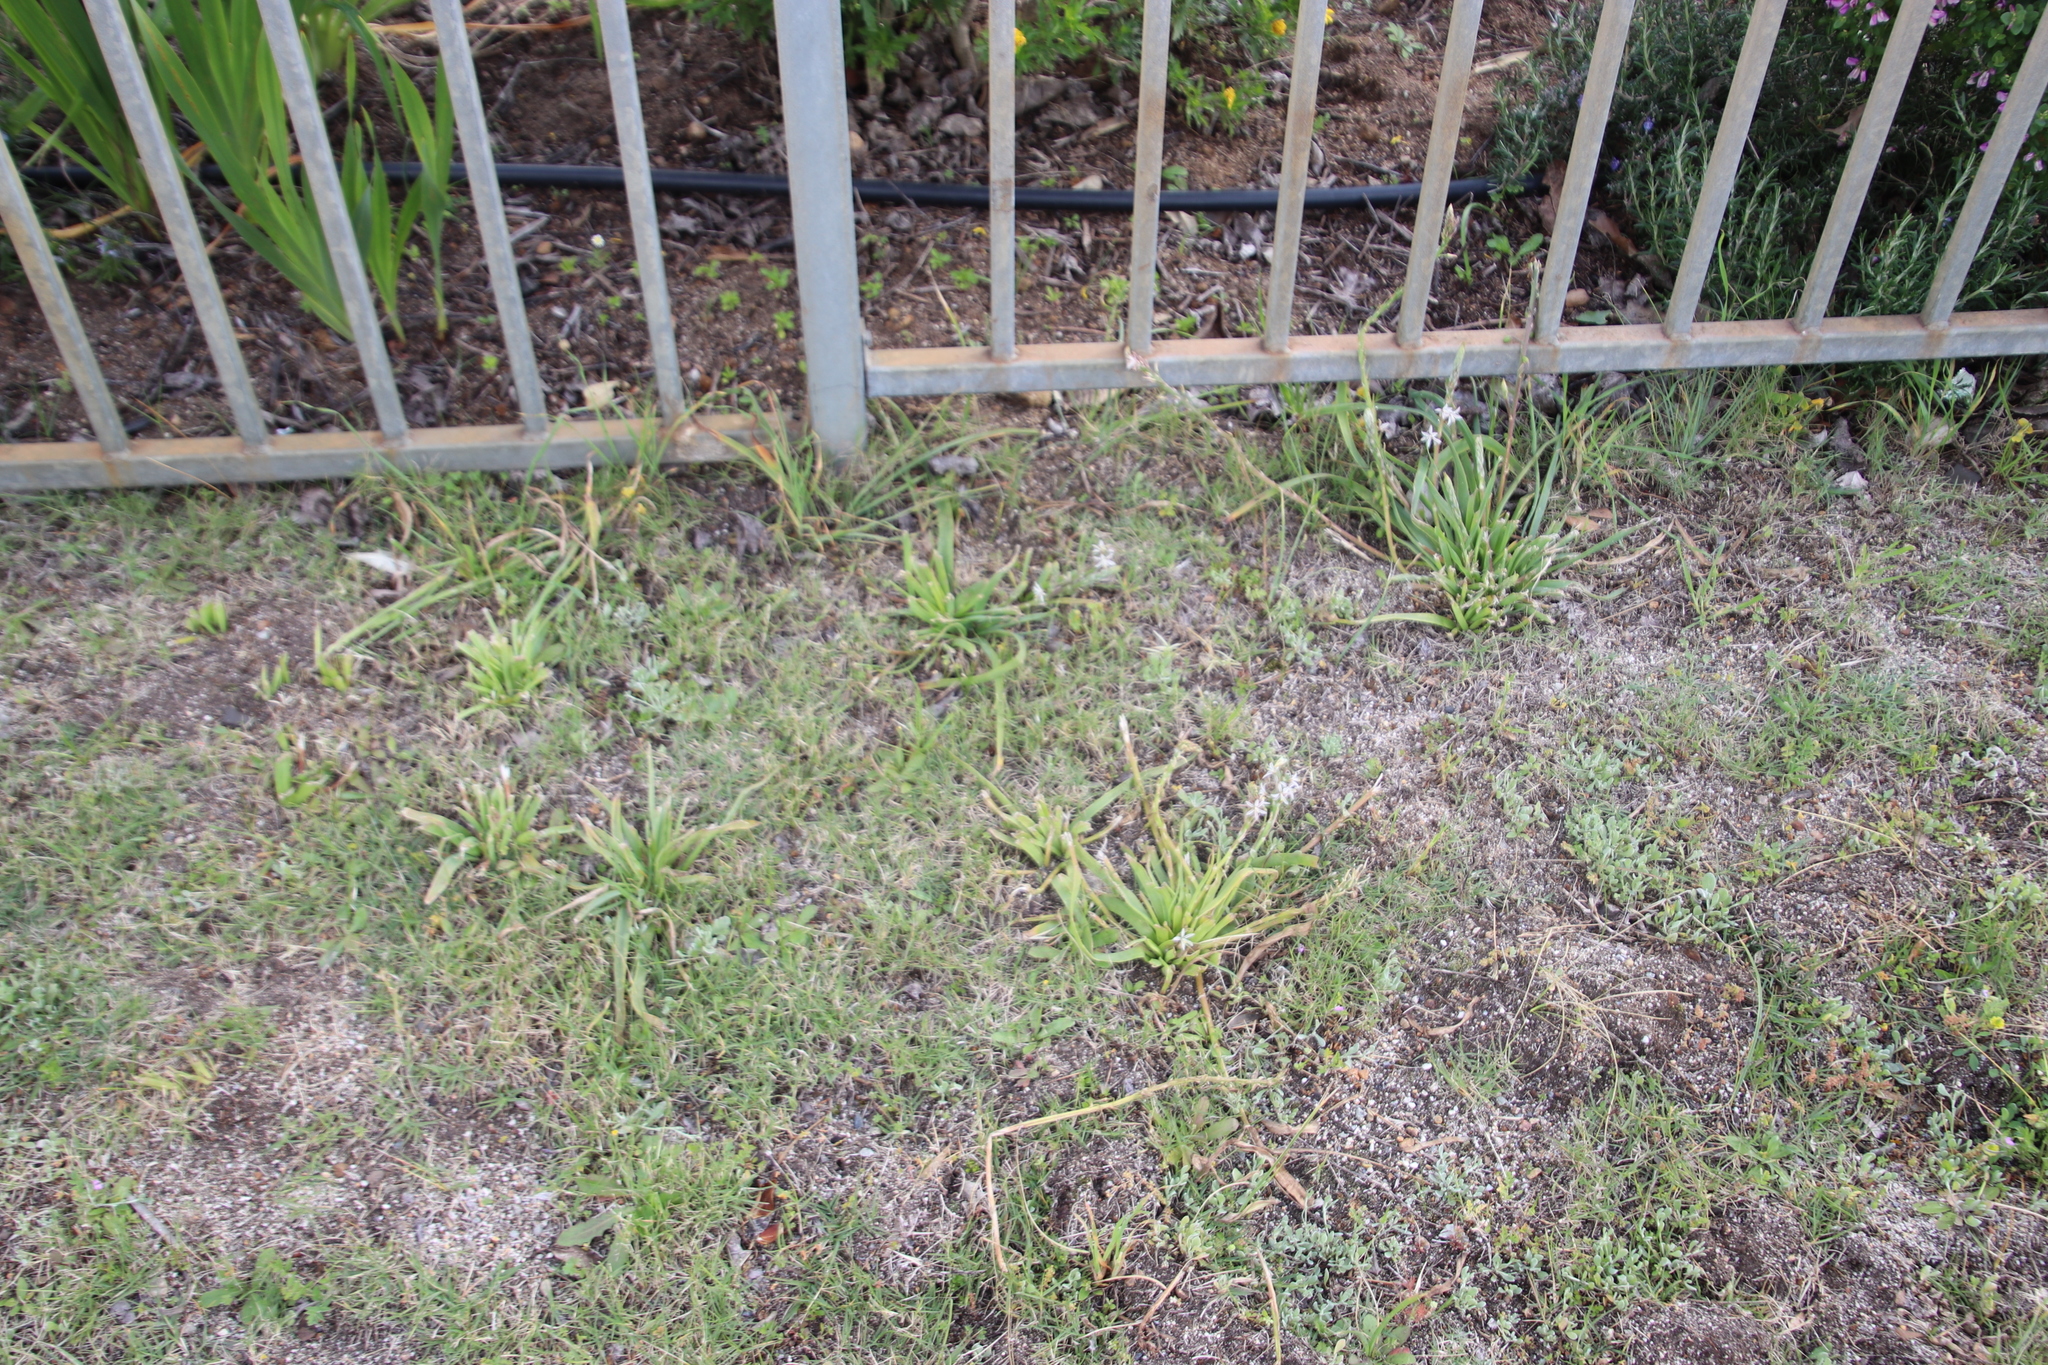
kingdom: Plantae
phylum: Tracheophyta
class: Liliopsida
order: Asparagales
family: Asphodelaceae
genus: Trachyandra
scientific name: Trachyandra ciliata
